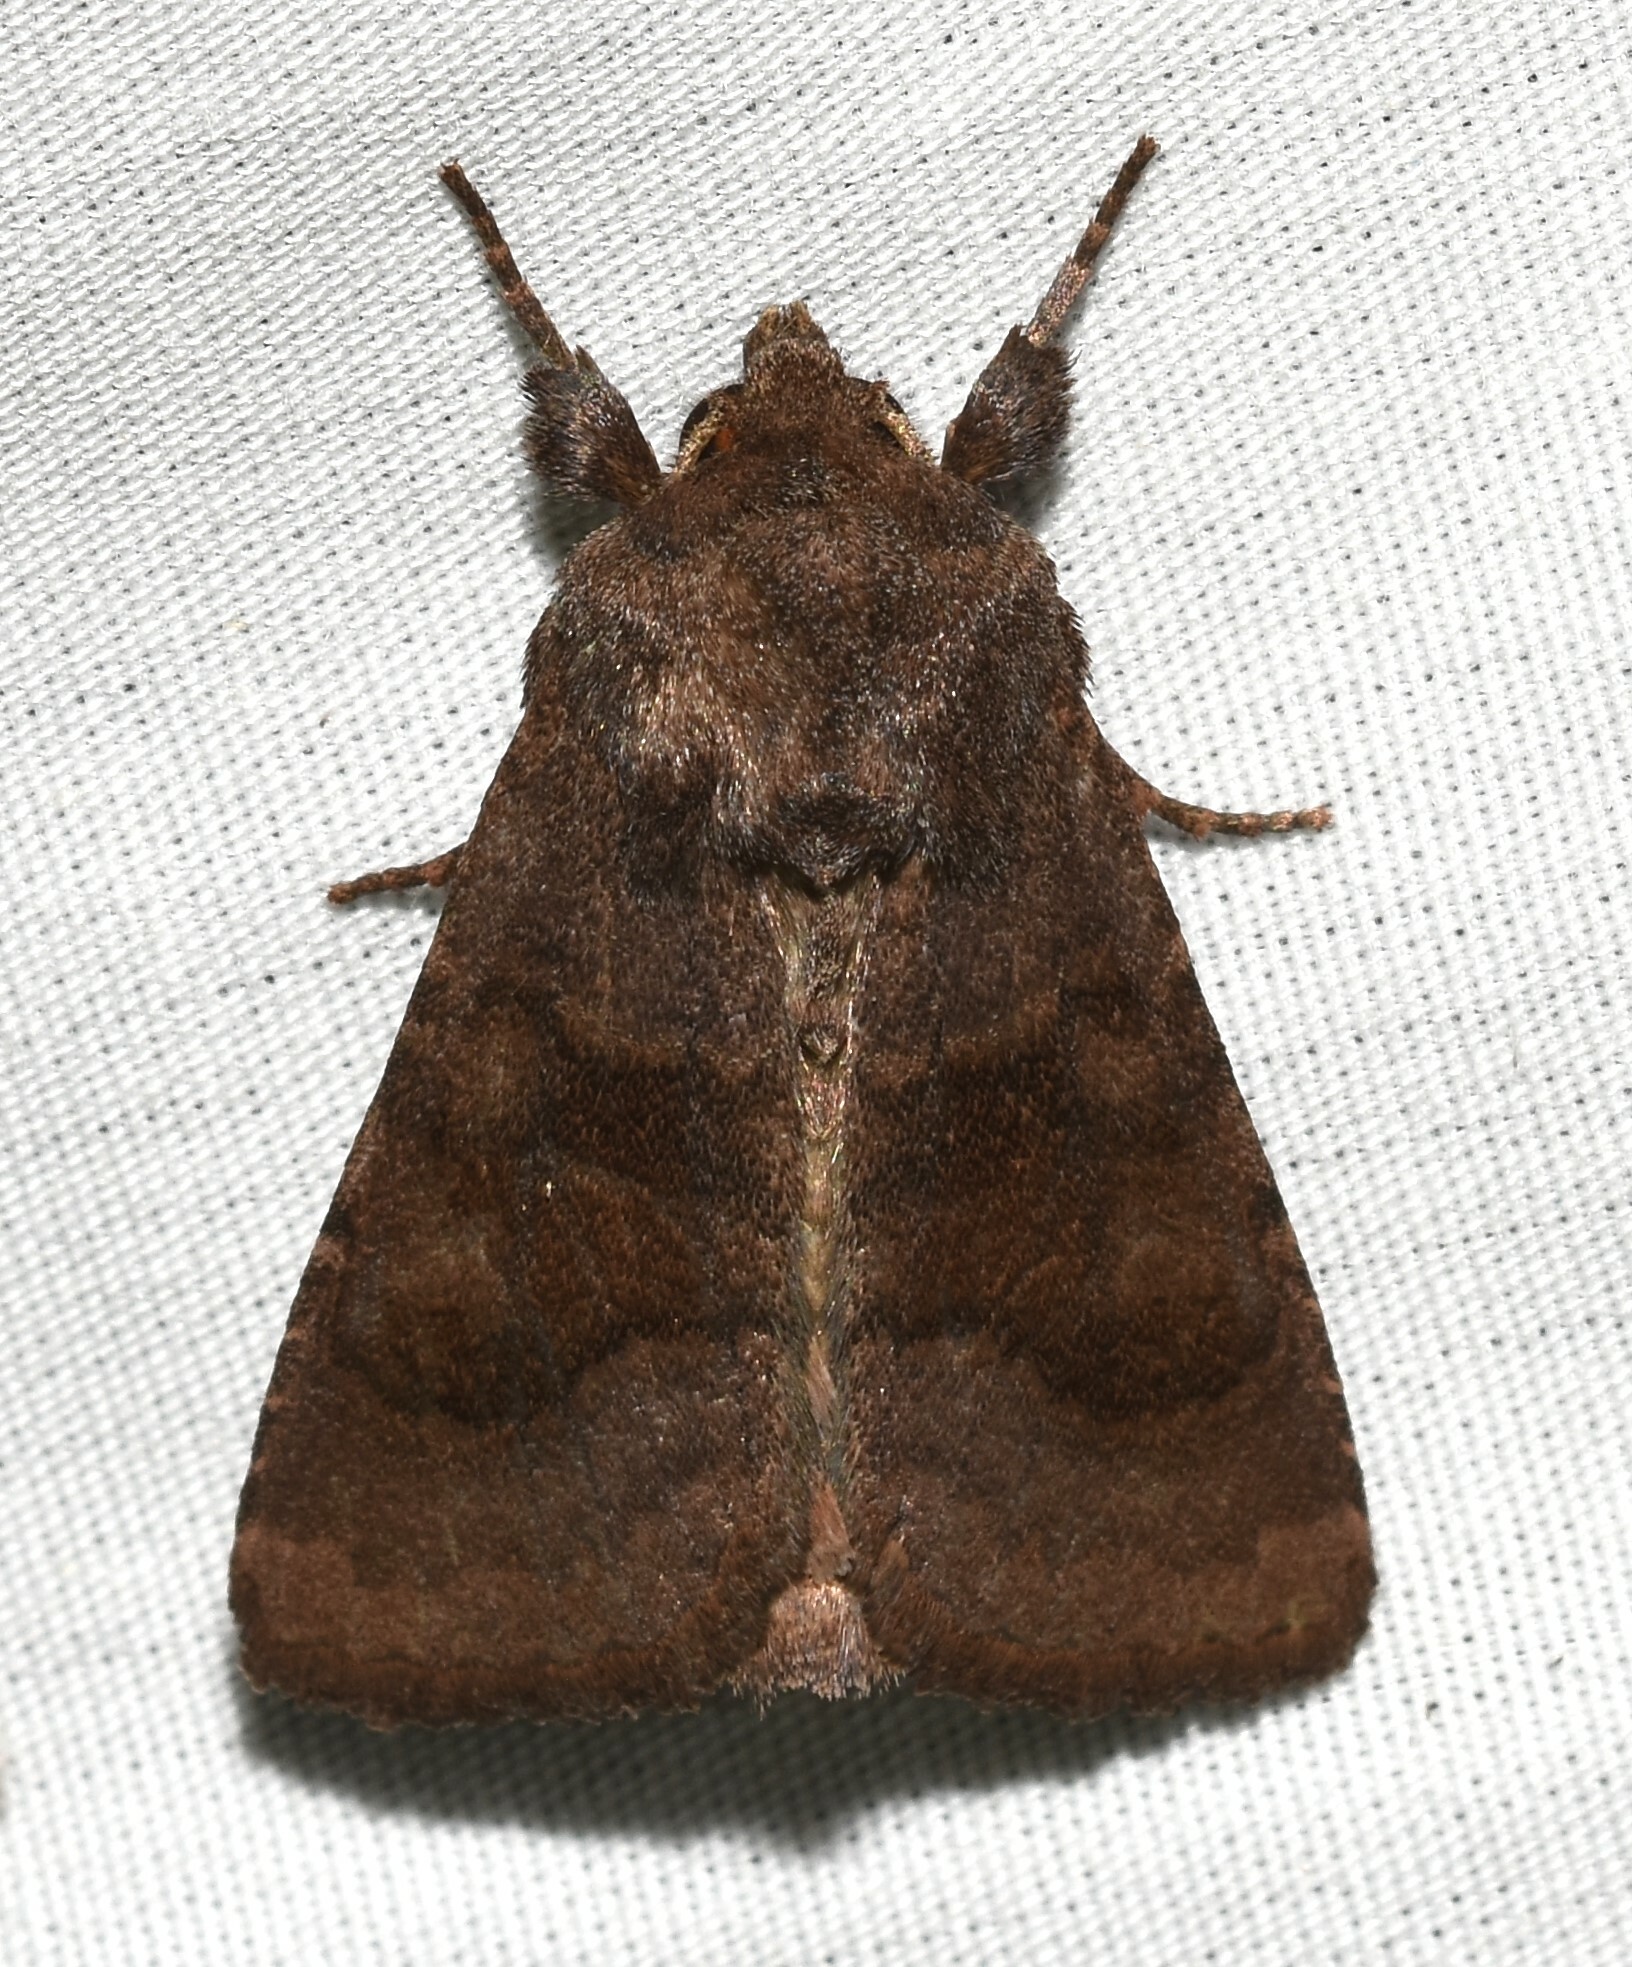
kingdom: Animalia
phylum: Arthropoda
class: Insecta
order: Lepidoptera
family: Noctuidae
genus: Nephelodes
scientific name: Nephelodes minians
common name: Bronzed cutworm
